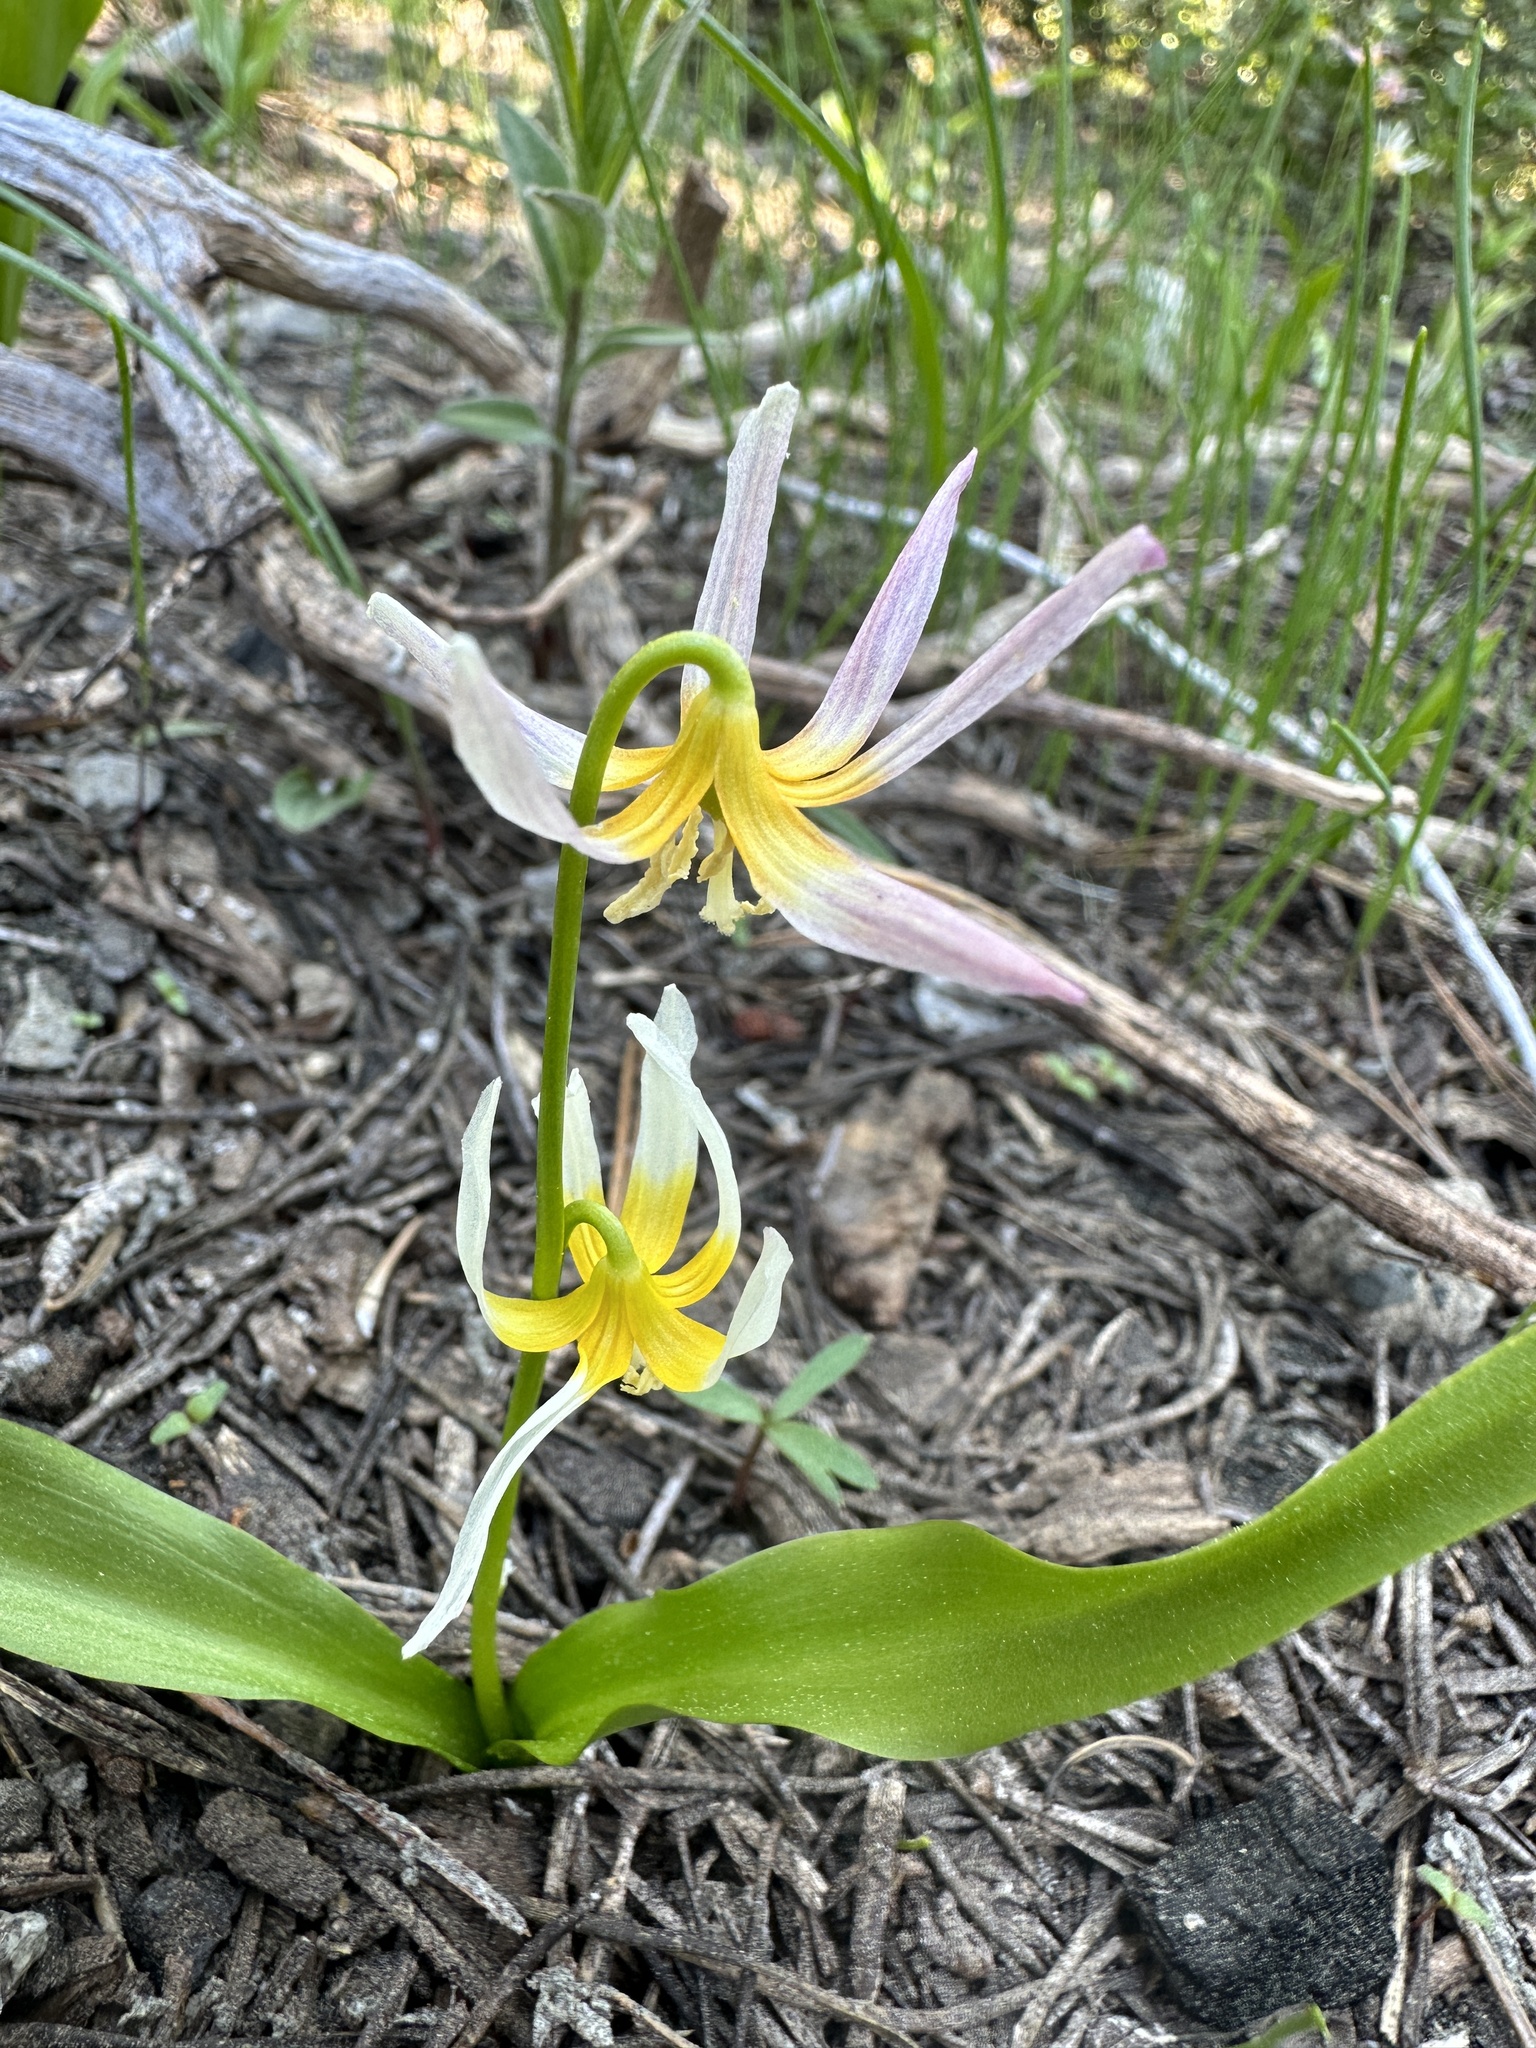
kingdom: Plantae
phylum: Tracheophyta
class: Liliopsida
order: Liliales
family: Liliaceae
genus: Erythronium
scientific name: Erythronium purpurascens
